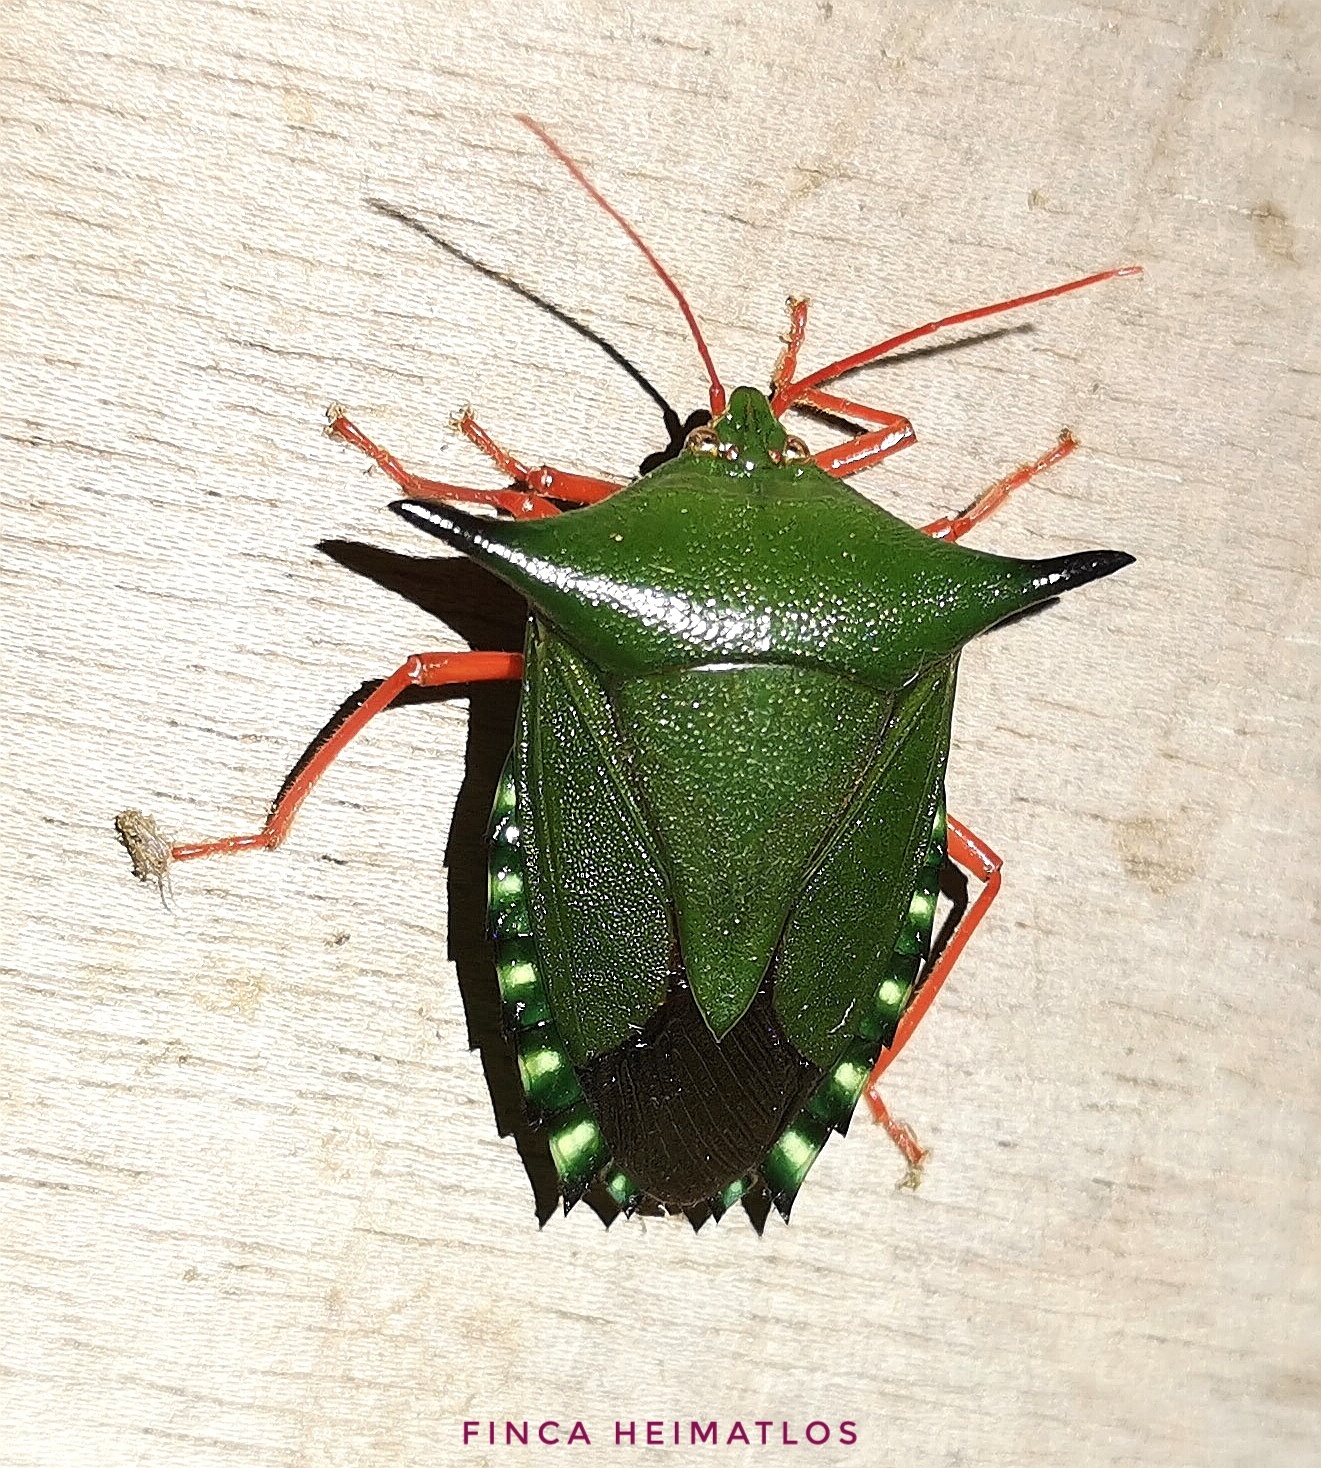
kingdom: Animalia
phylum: Arthropoda
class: Insecta
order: Hemiptera
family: Pentatomidae
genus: Edessa
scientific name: Edessa dolichocera
